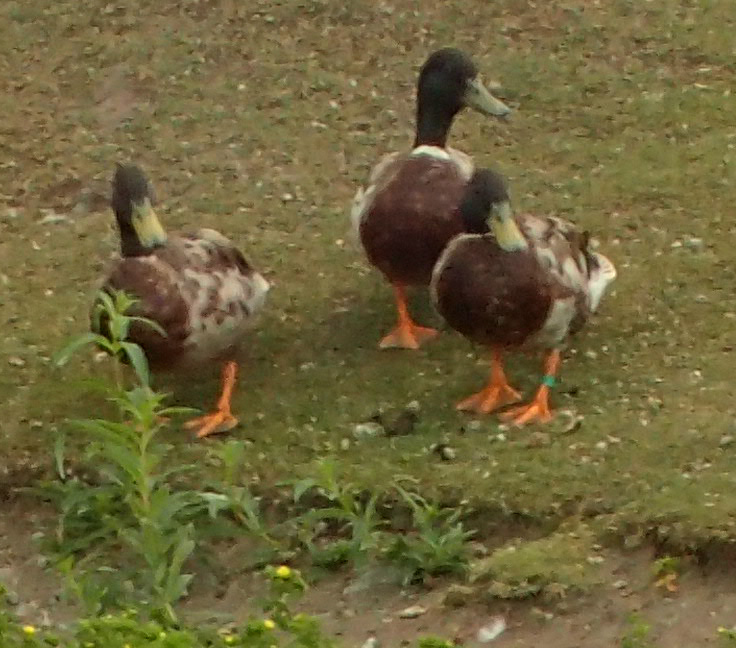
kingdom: Animalia
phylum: Chordata
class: Aves
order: Anseriformes
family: Anatidae
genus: Anas
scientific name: Anas platyrhynchos
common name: Mallard
